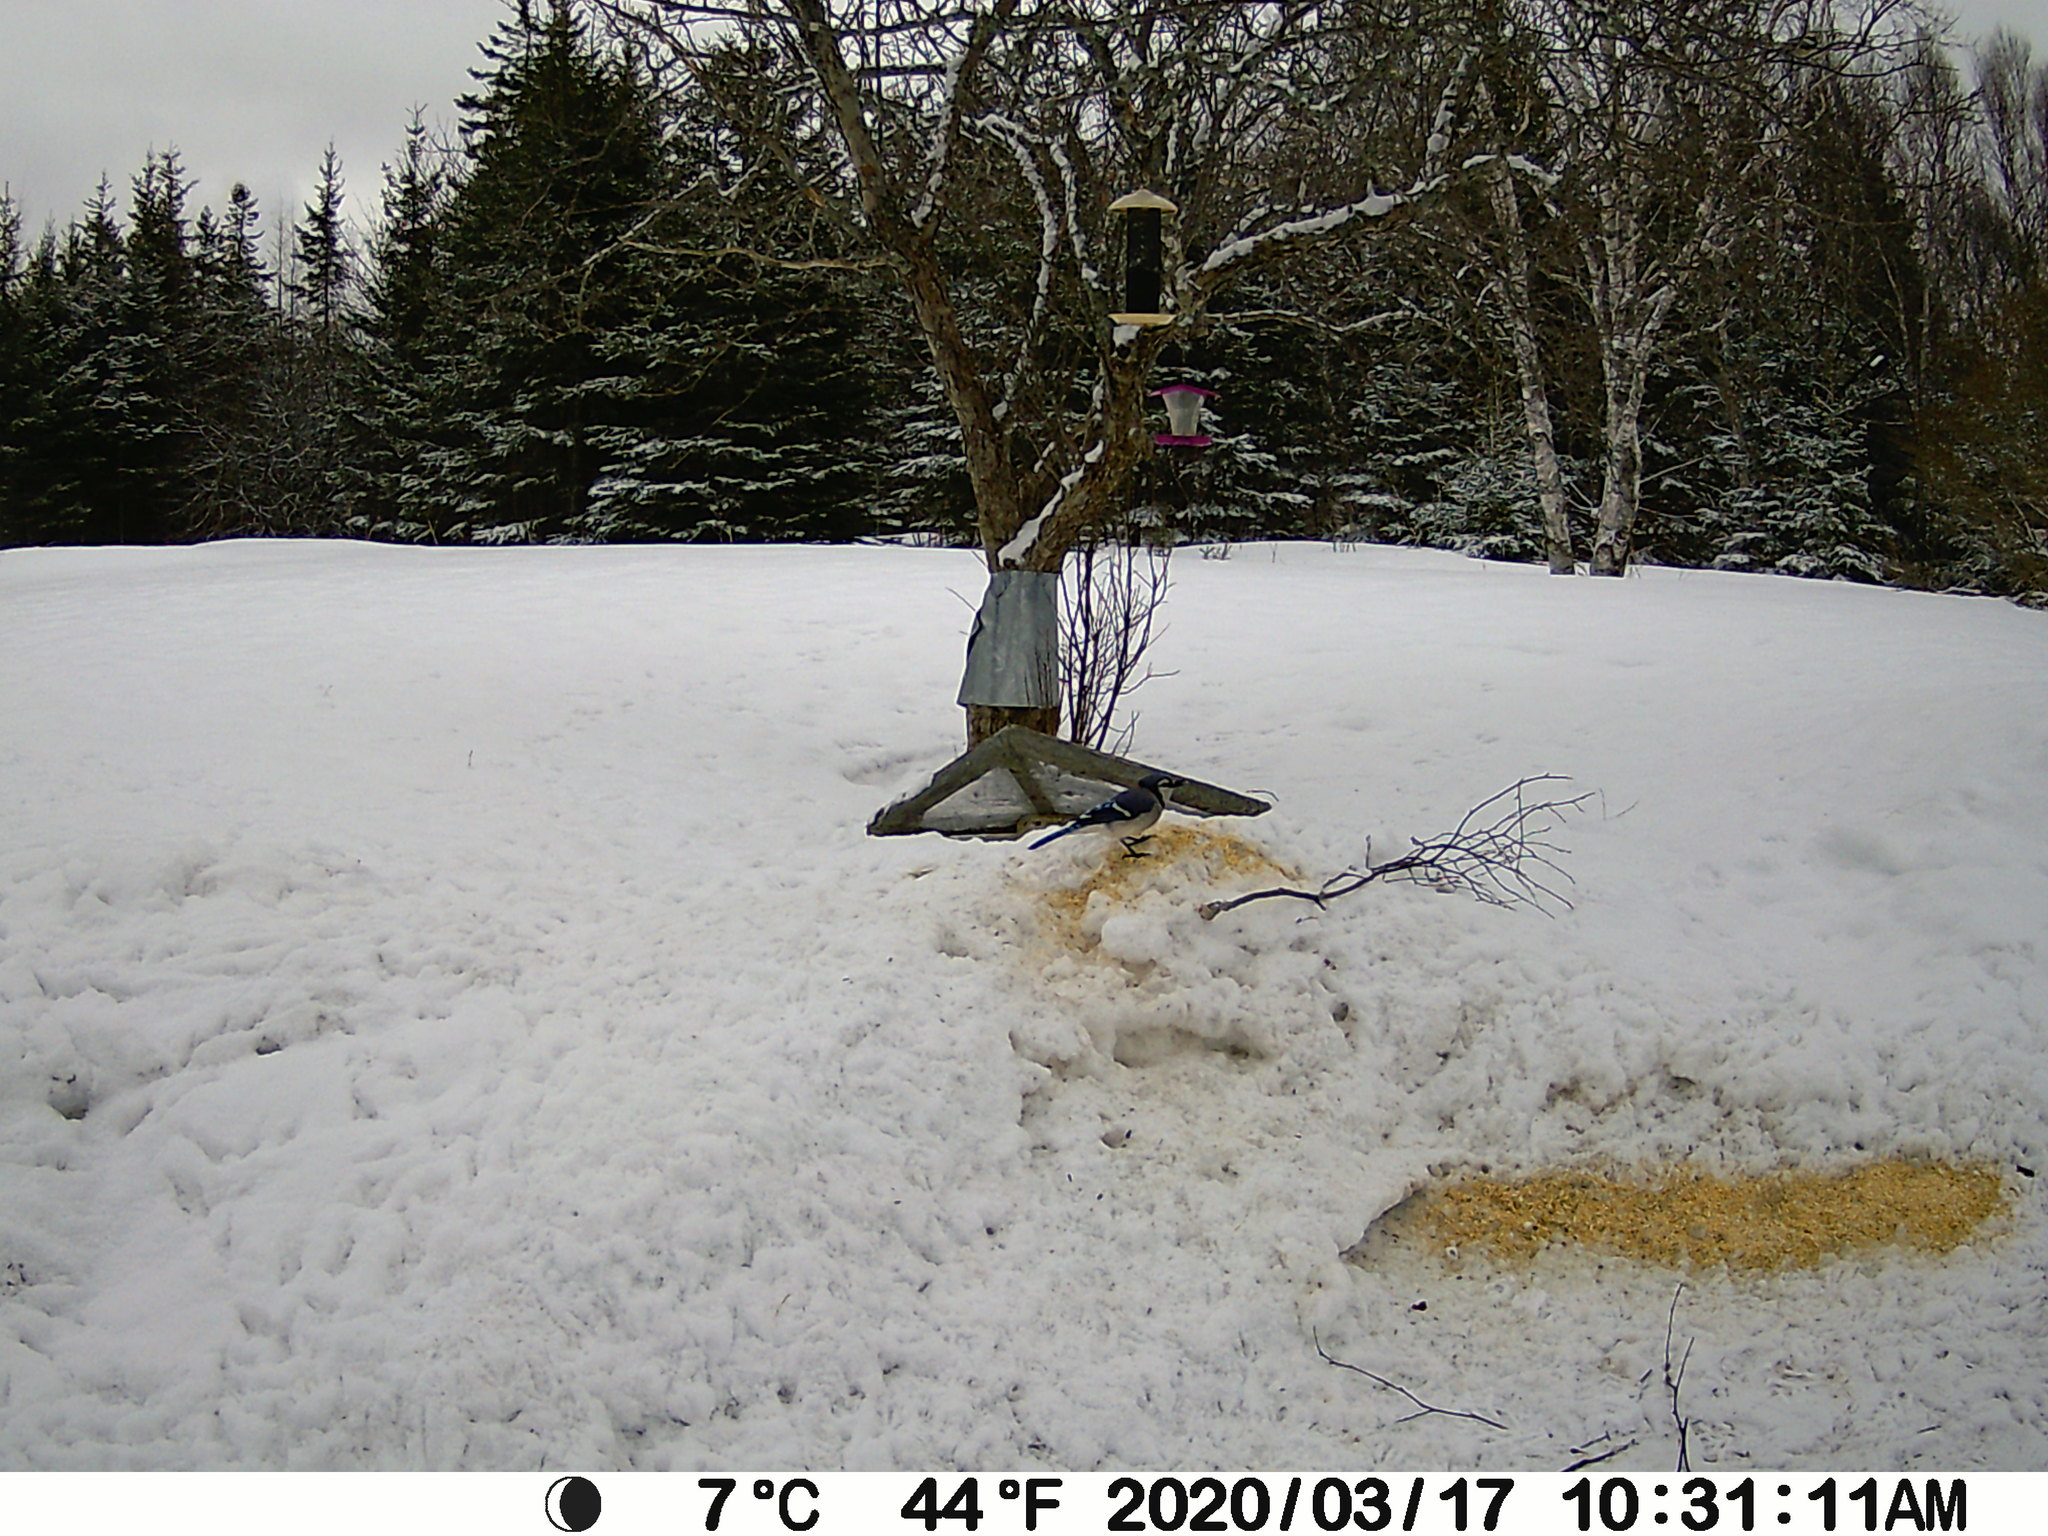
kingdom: Animalia
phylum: Chordata
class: Aves
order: Passeriformes
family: Corvidae
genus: Cyanocitta
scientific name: Cyanocitta cristata
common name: Blue jay
